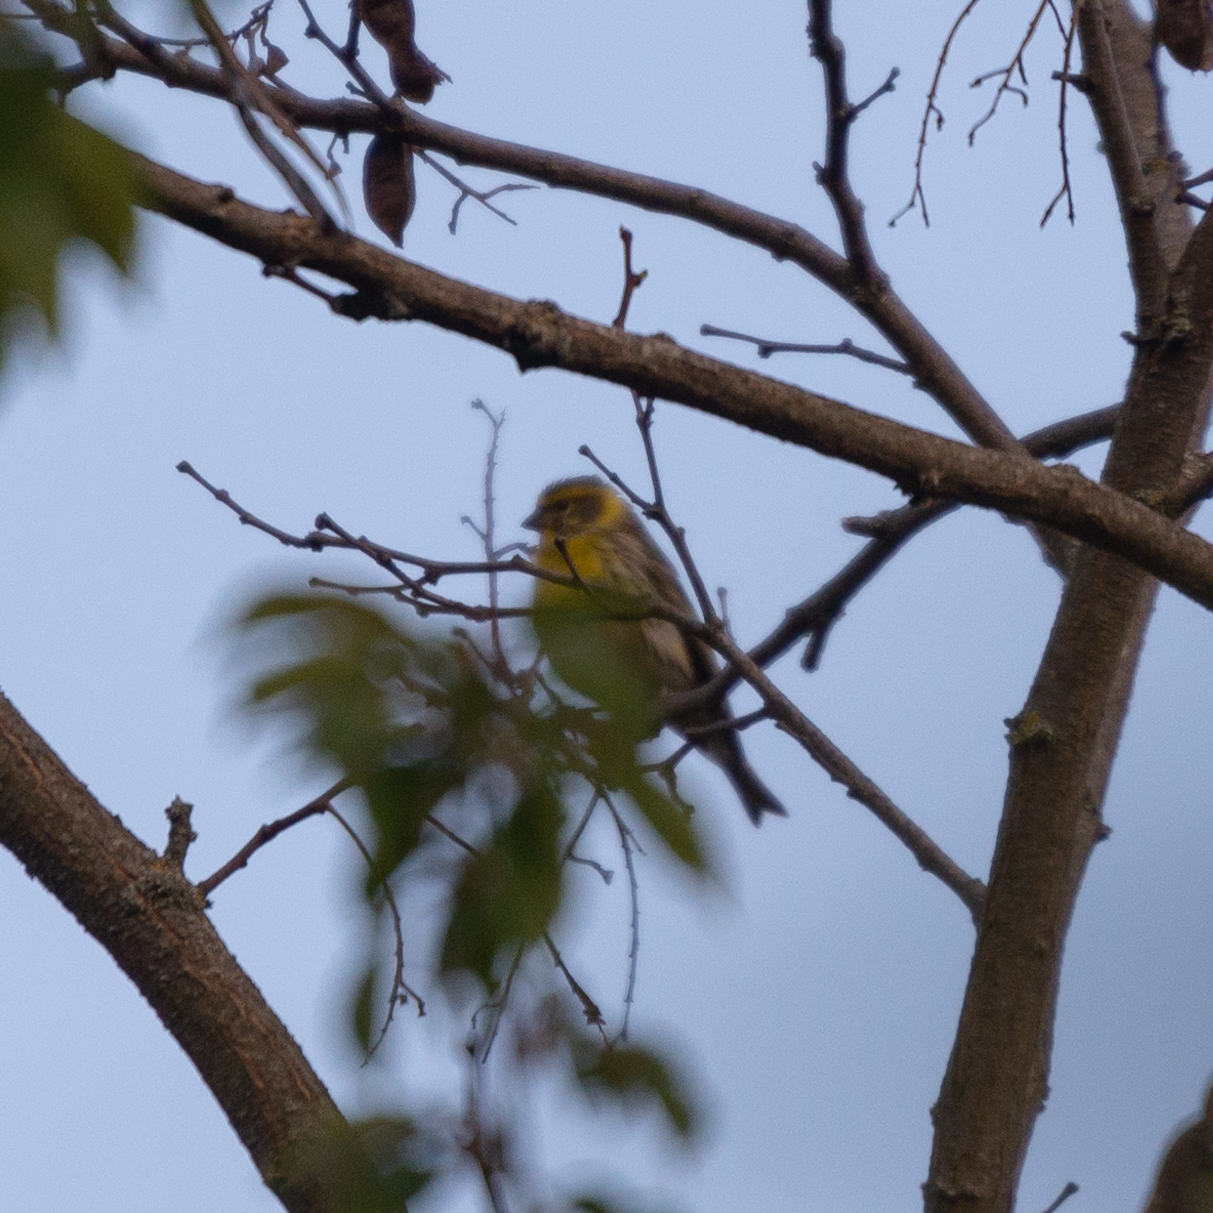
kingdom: Animalia
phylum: Chordata
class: Aves
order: Passeriformes
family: Fringillidae
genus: Serinus
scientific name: Serinus serinus
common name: European serin
